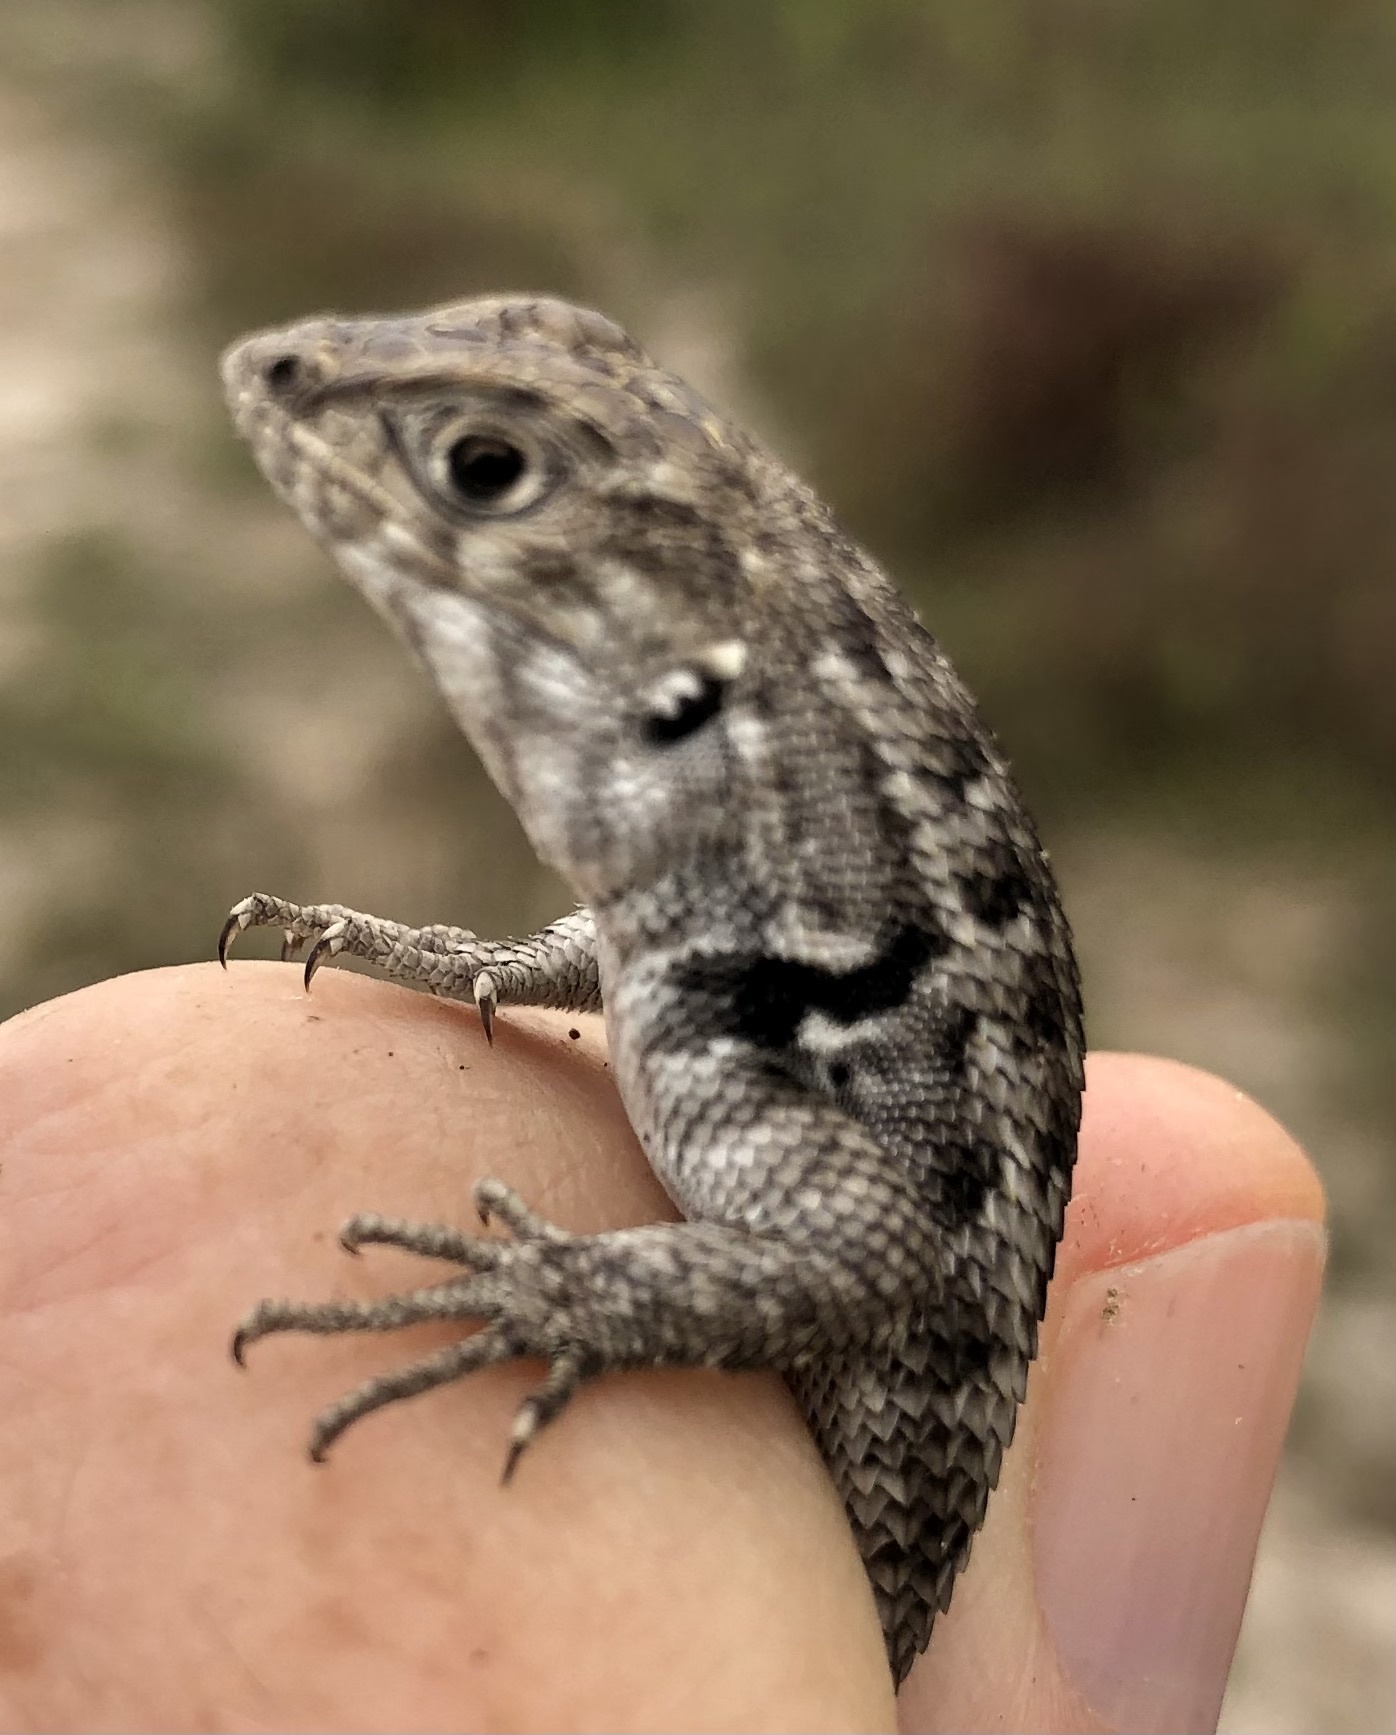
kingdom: Animalia
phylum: Chordata
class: Squamata
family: Liolaemidae
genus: Liolaemus
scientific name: Liolaemus zapallarensis
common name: Zapallaren tree iguana
